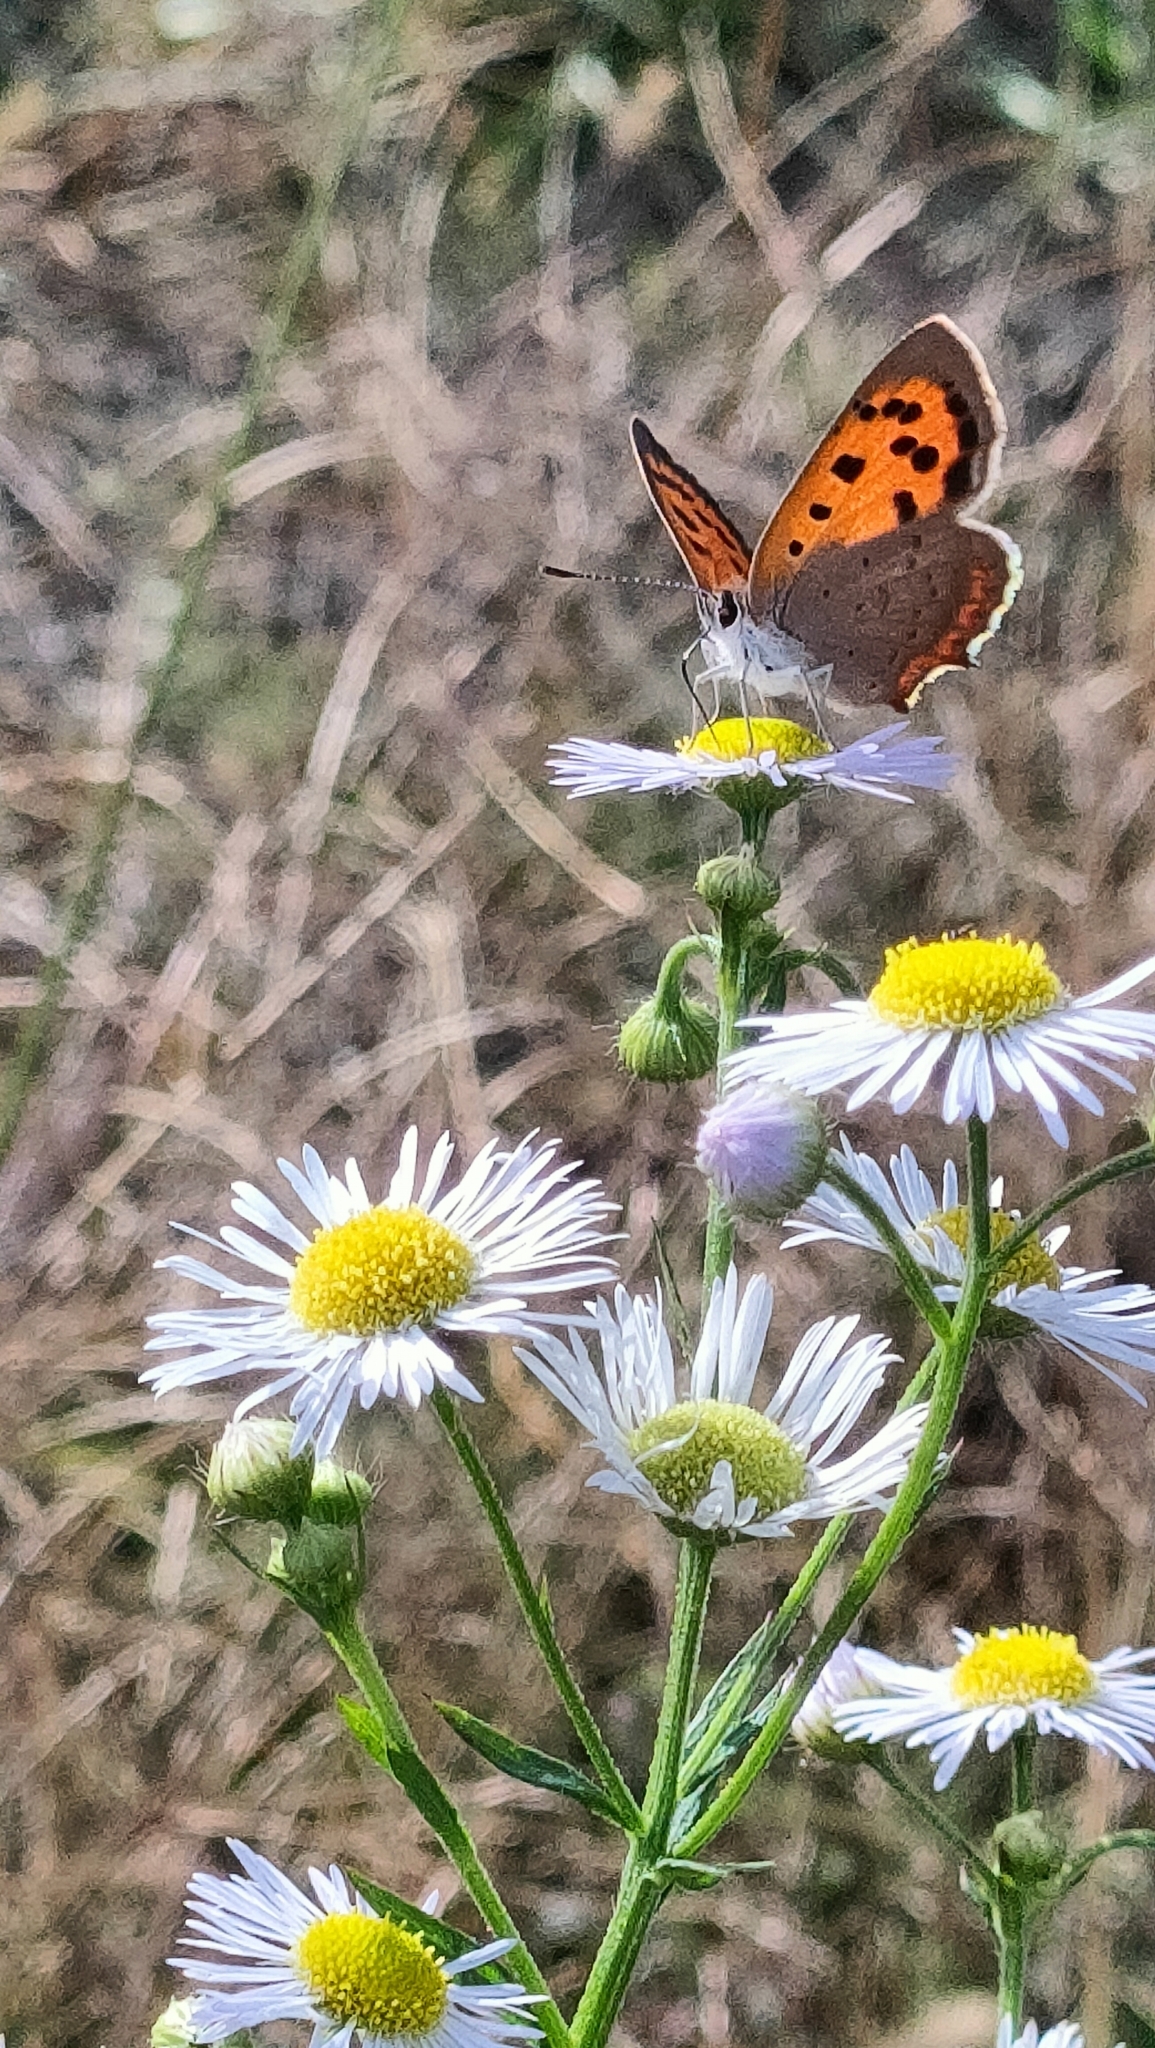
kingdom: Animalia
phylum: Arthropoda
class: Insecta
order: Lepidoptera
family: Lycaenidae
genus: Lycaena
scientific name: Lycaena phlaeas
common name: Small copper
